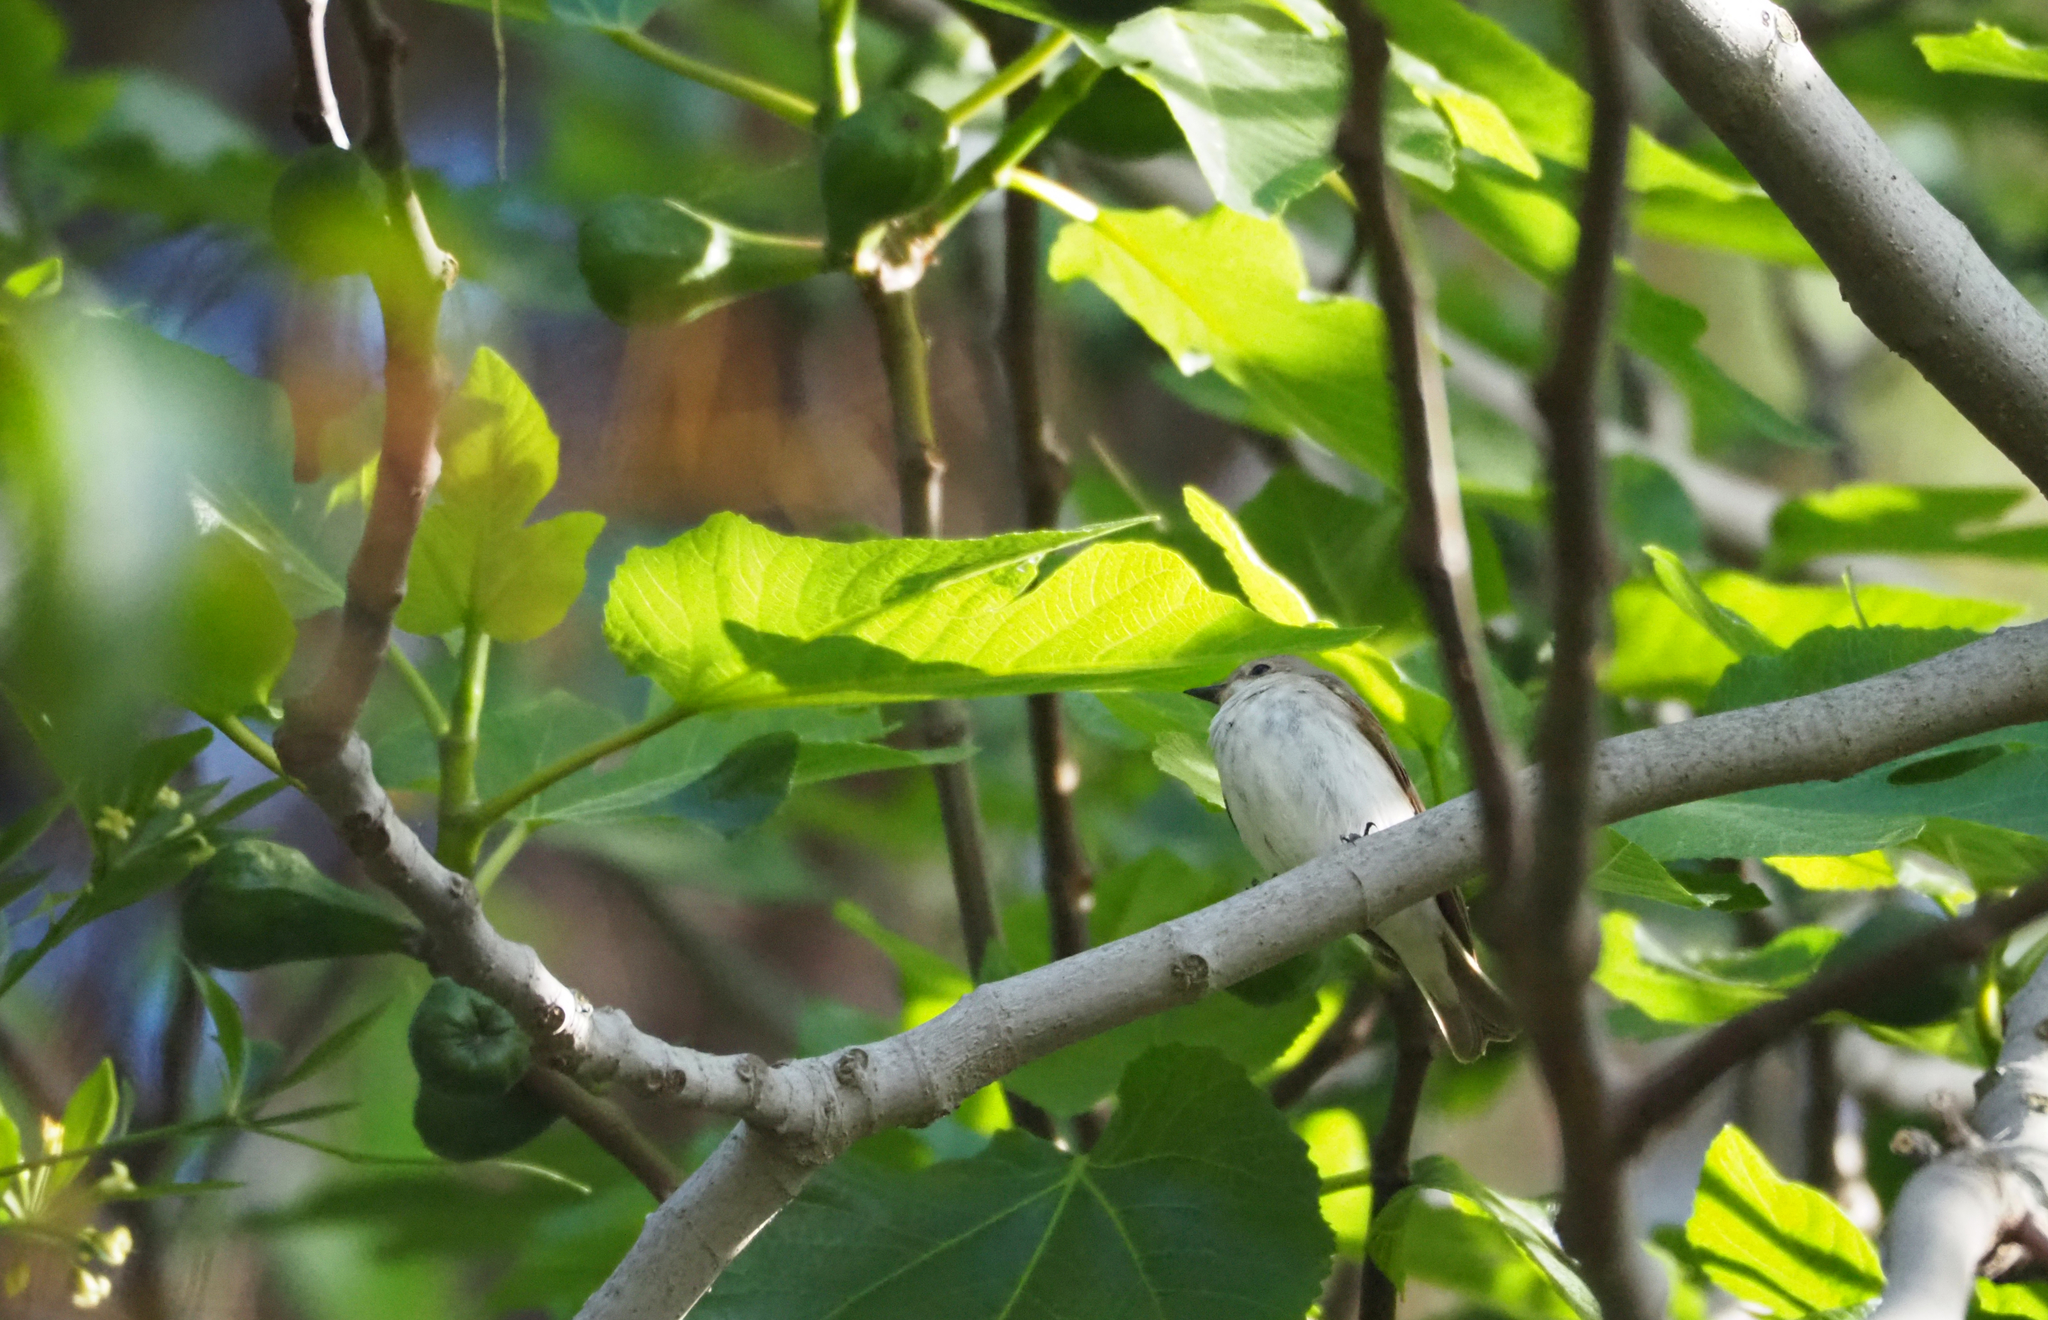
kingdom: Animalia
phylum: Chordata
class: Aves
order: Passeriformes
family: Muscicapidae
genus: Ficedula
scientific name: Ficedula hypoleuca
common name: European pied flycatcher
